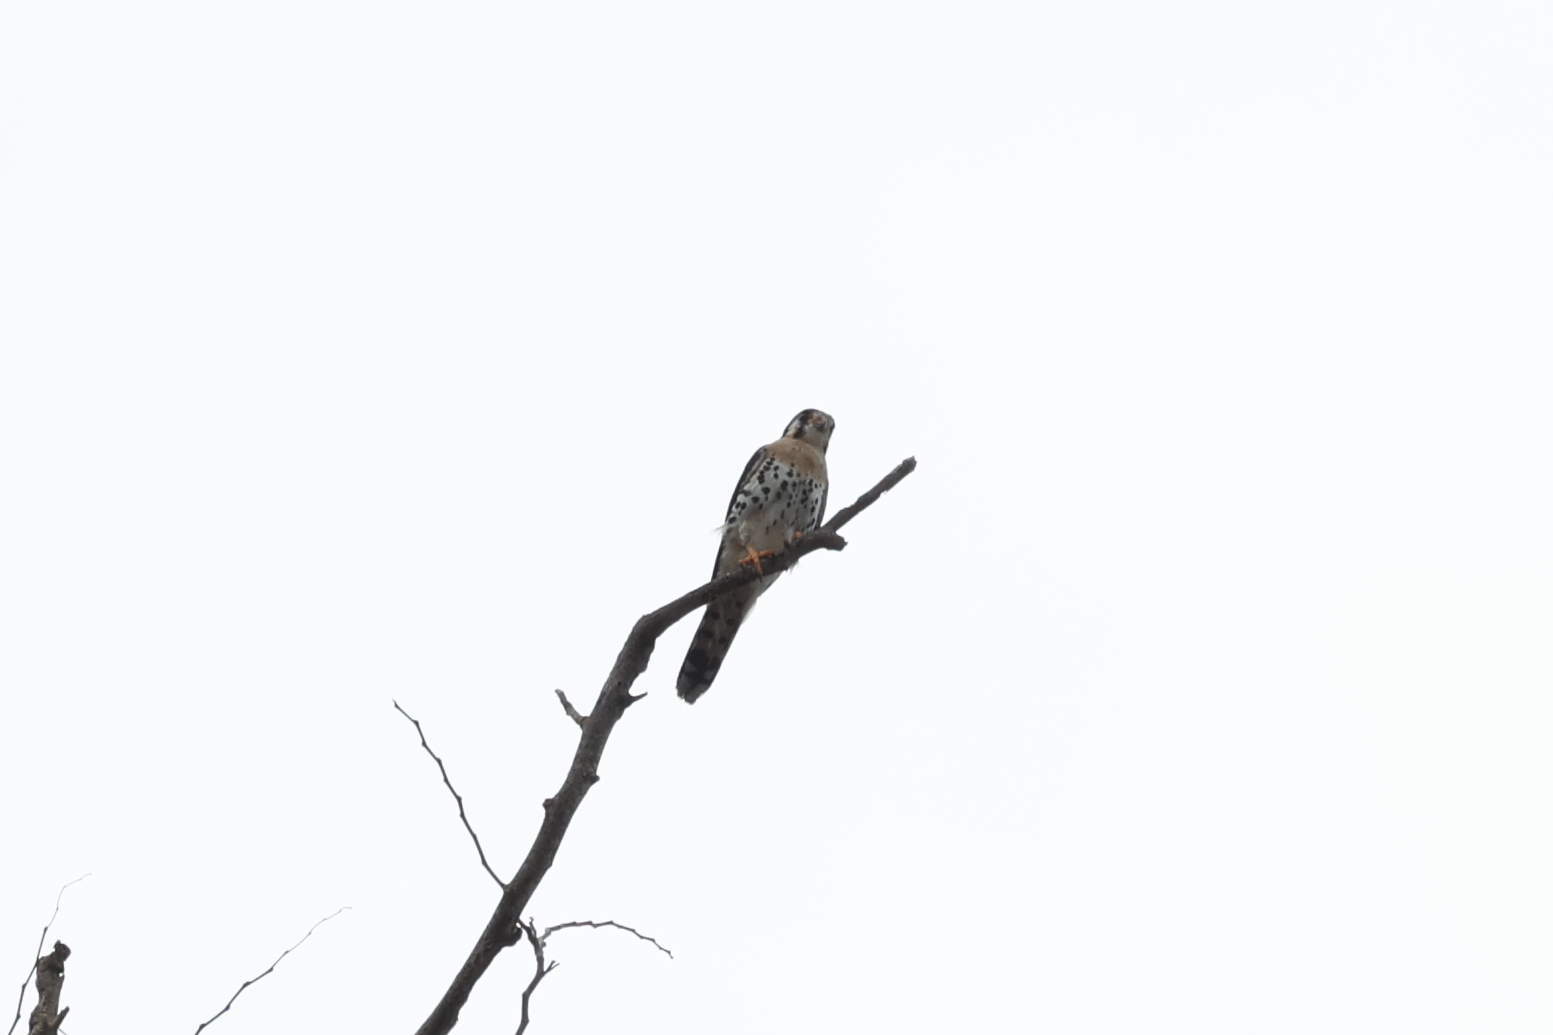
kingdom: Animalia
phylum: Chordata
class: Aves
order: Falconiformes
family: Falconidae
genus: Falco
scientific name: Falco sparverius
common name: American kestrel
